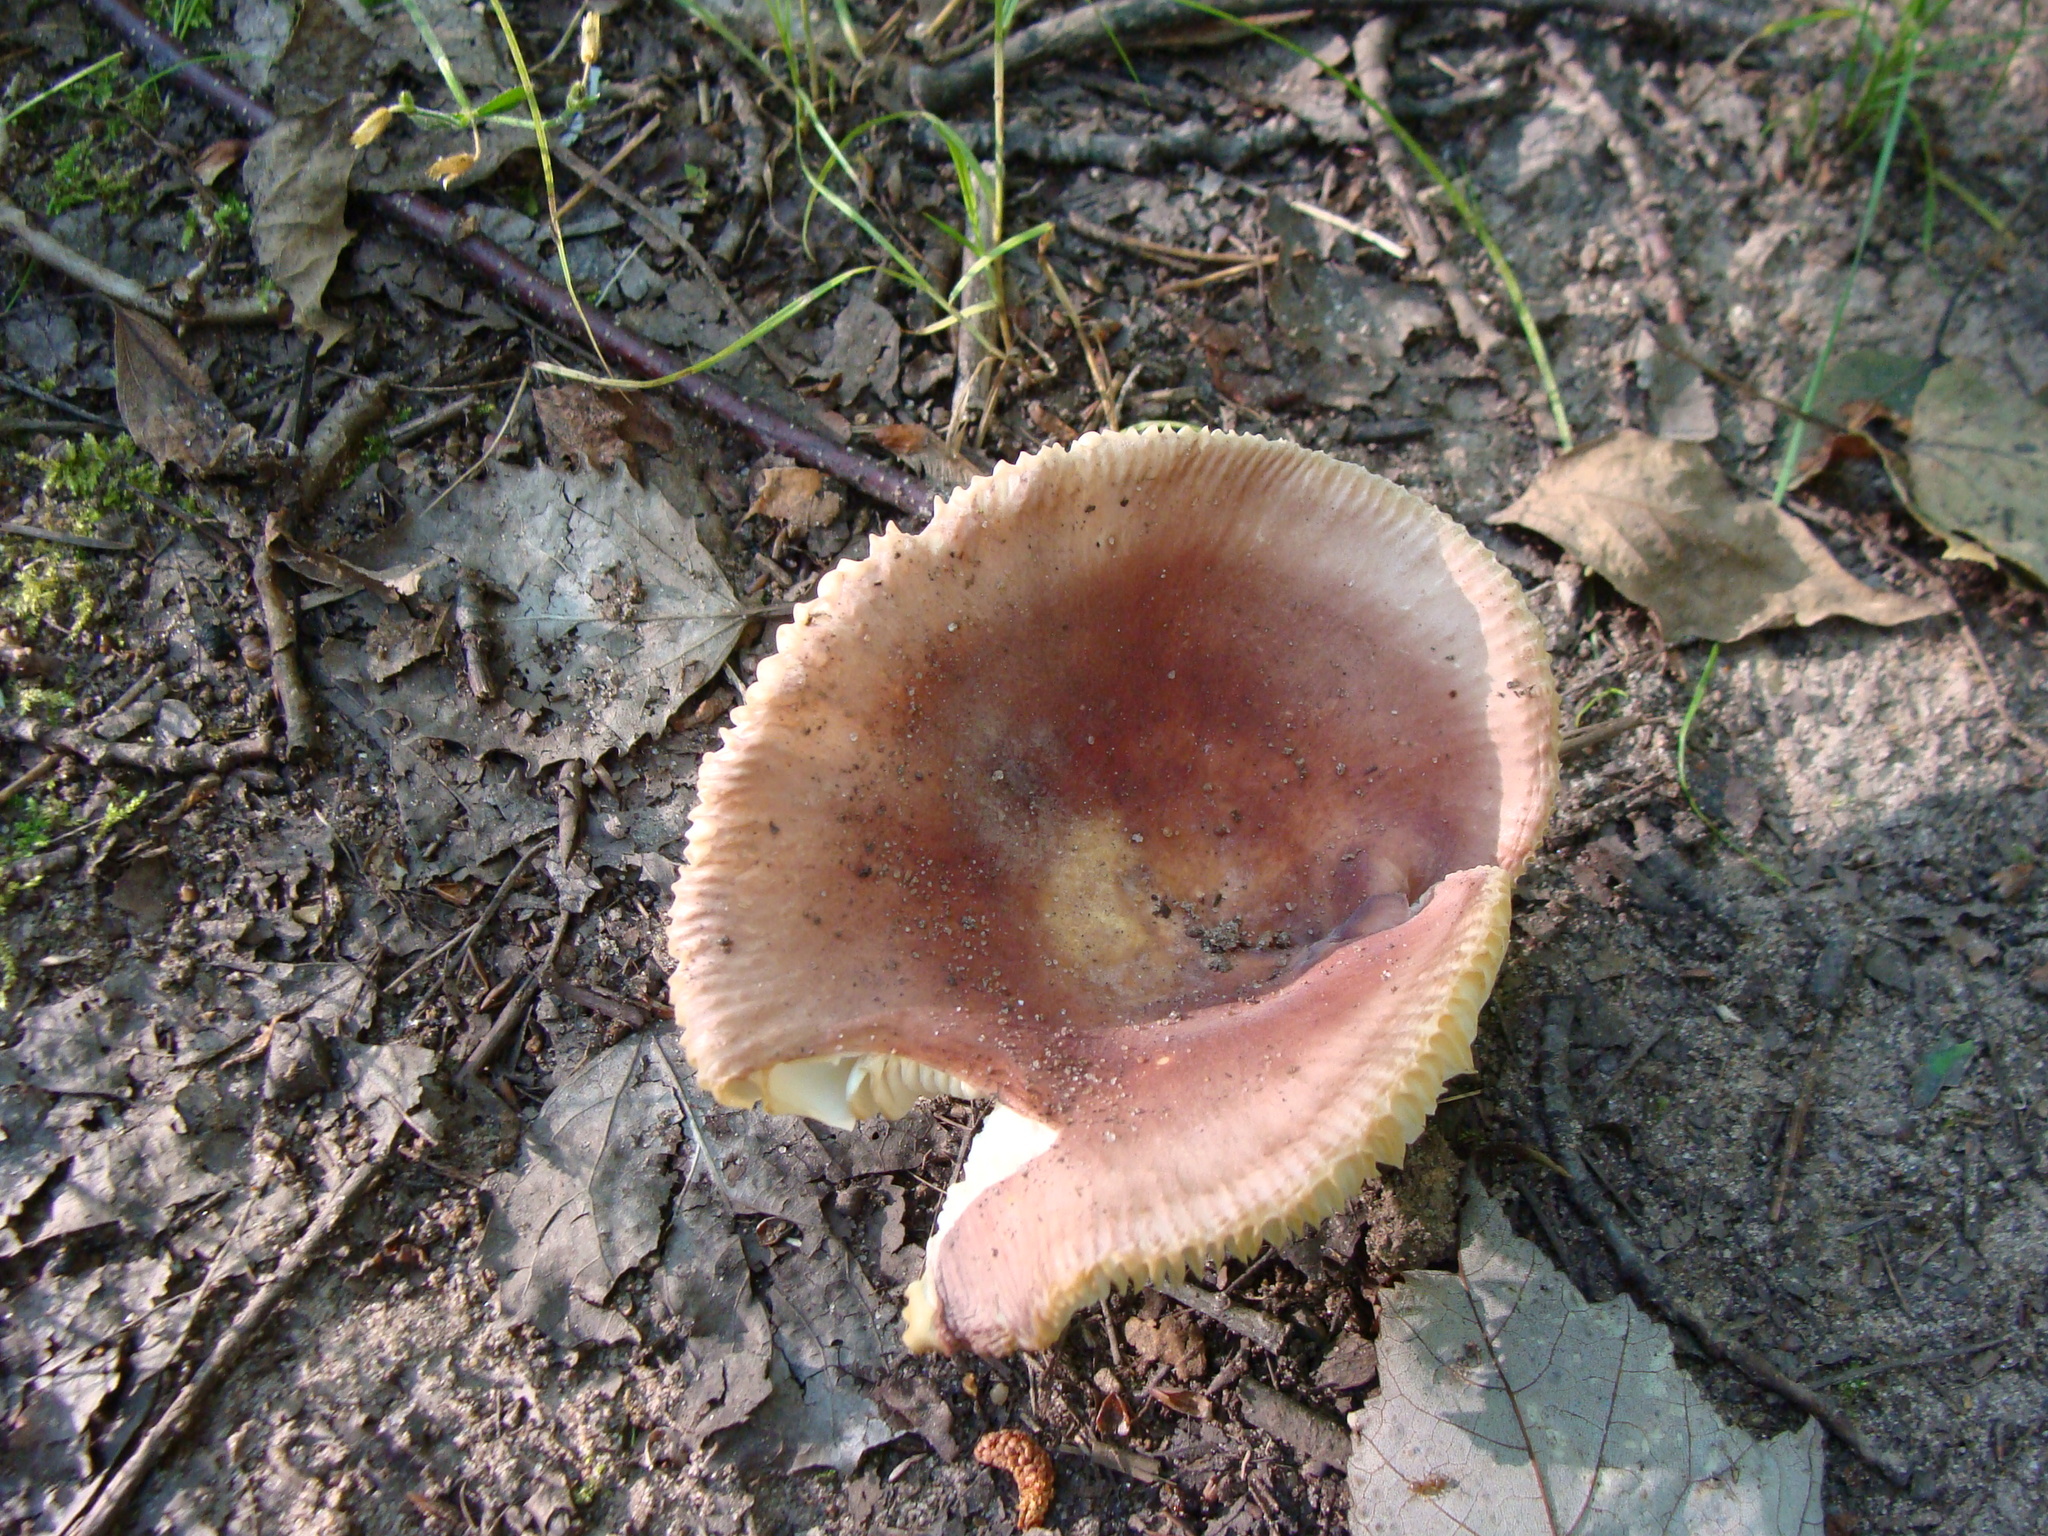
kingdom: Fungi
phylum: Basidiomycota
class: Agaricomycetes
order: Russulales
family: Russulaceae
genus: Russula
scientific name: Russula
